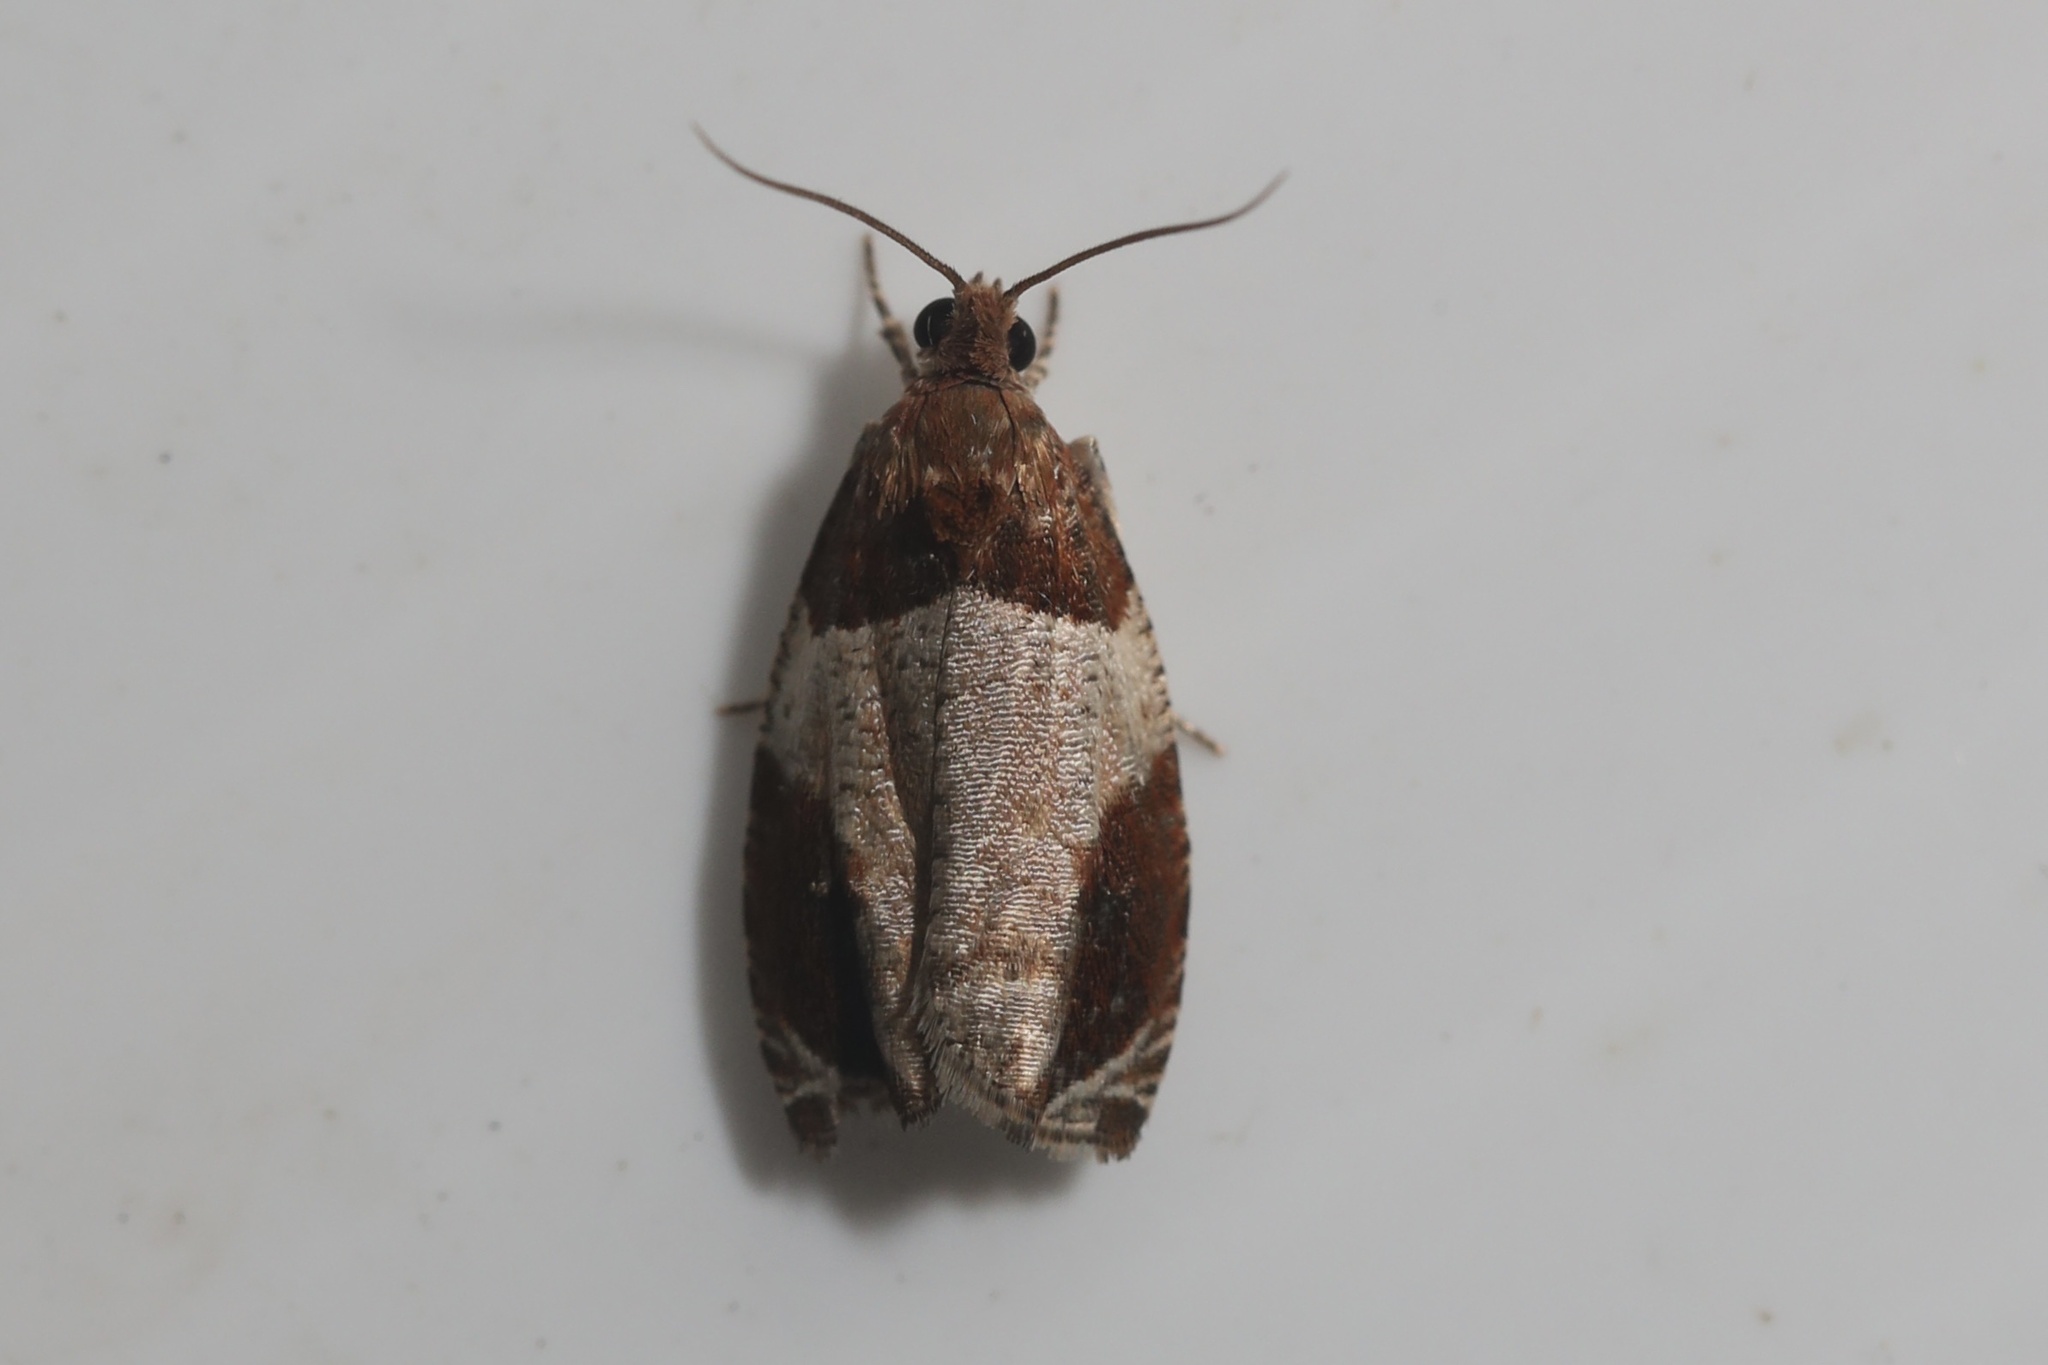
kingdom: Animalia
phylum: Arthropoda
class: Insecta
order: Lepidoptera
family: Tortricidae
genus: Olethreutes
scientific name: Olethreutes ferriferana
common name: Hydrangea leaftier moth
